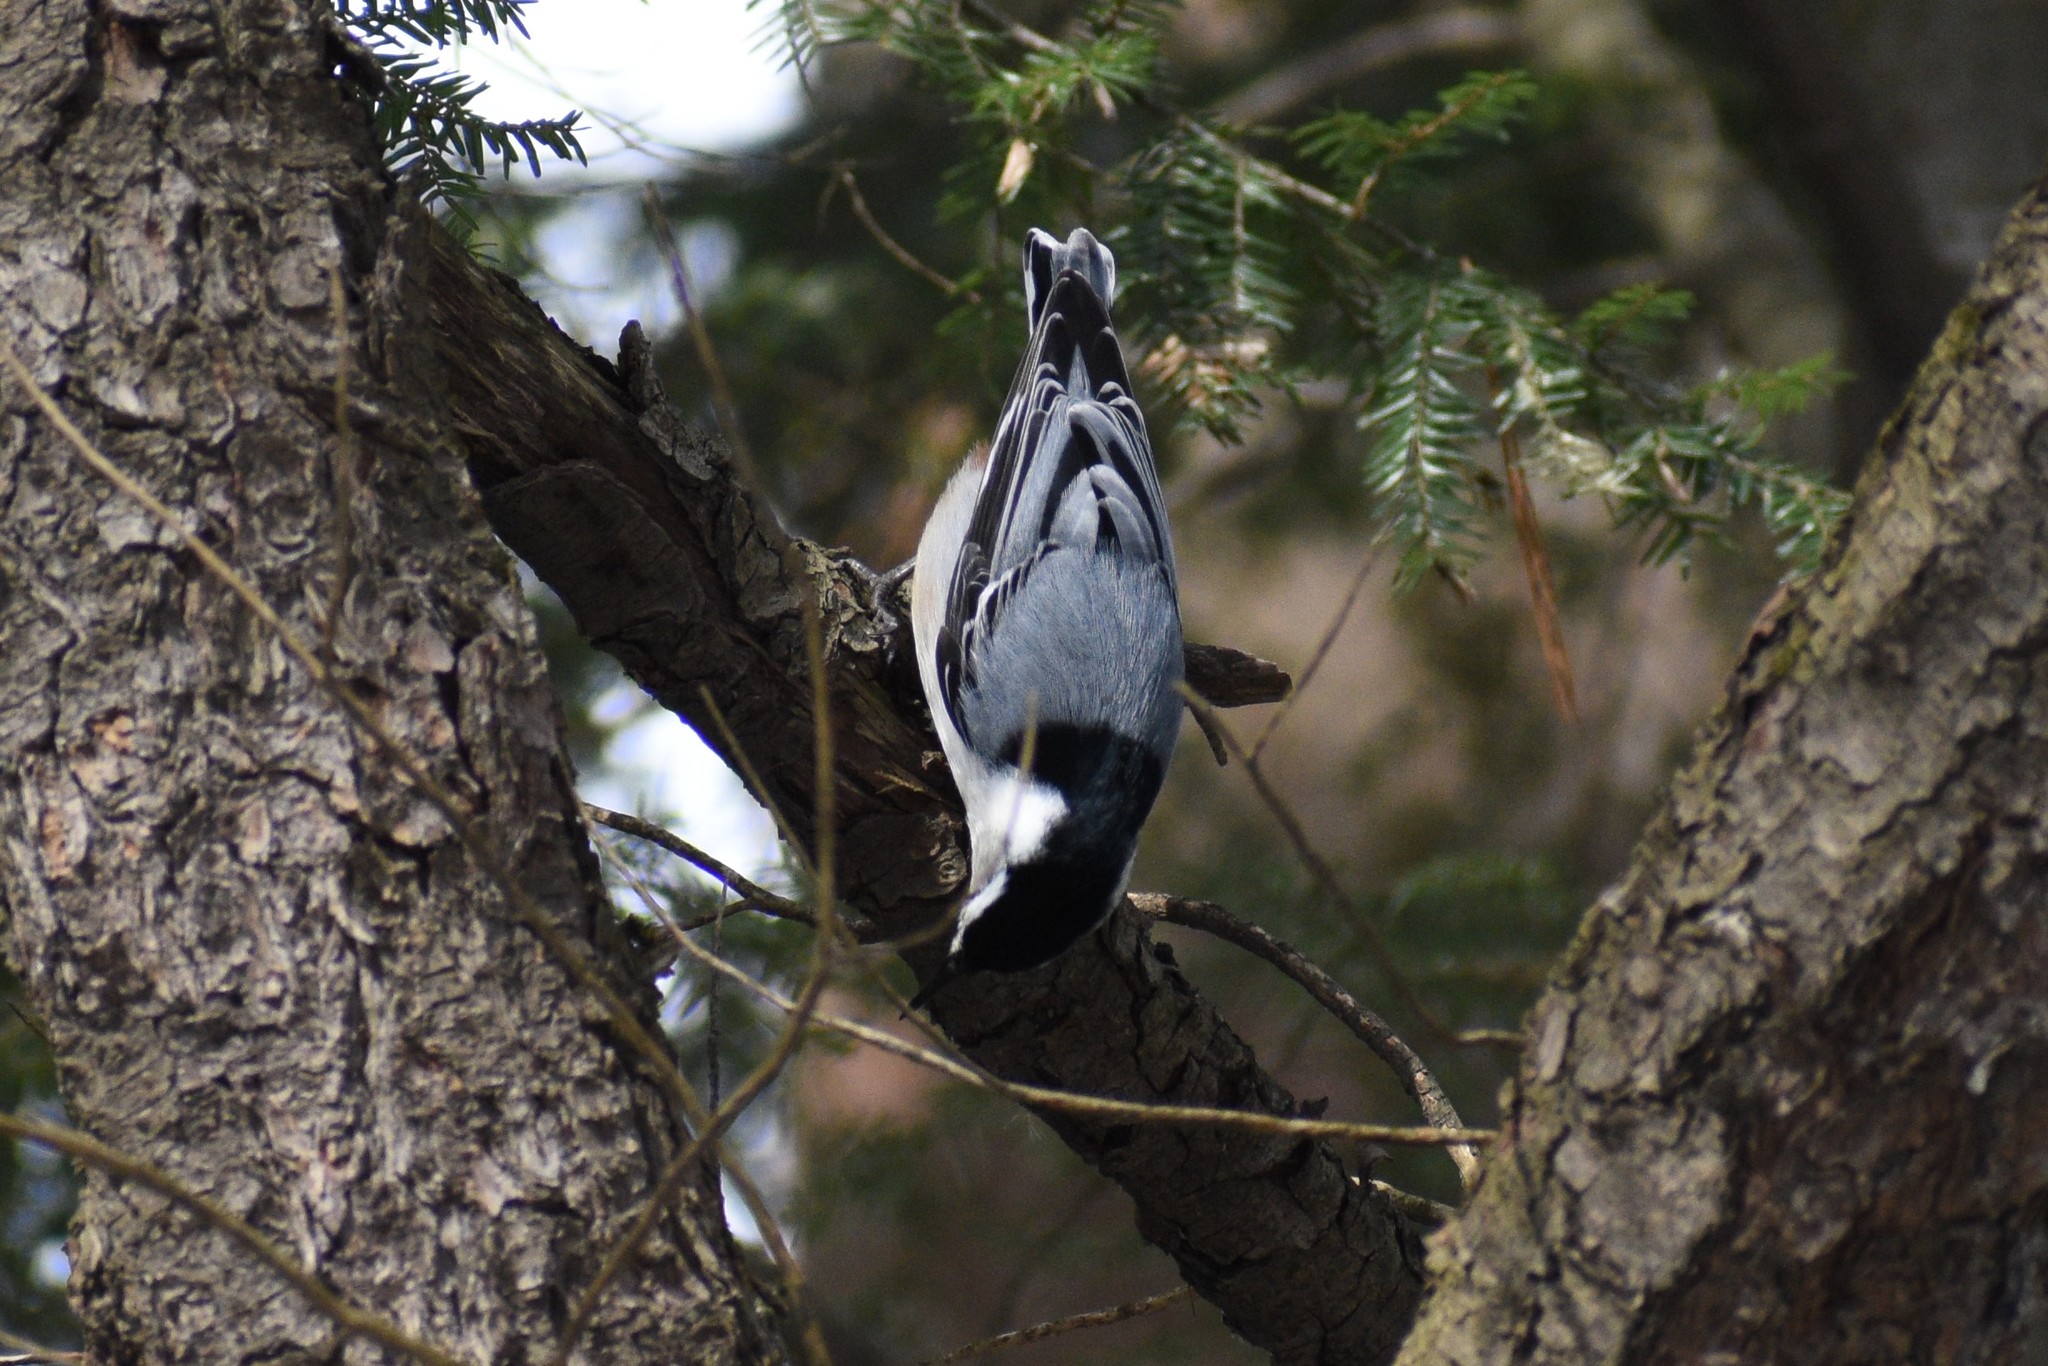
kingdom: Animalia
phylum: Chordata
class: Aves
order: Passeriformes
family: Sittidae
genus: Sitta
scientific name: Sitta carolinensis
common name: White-breasted nuthatch
